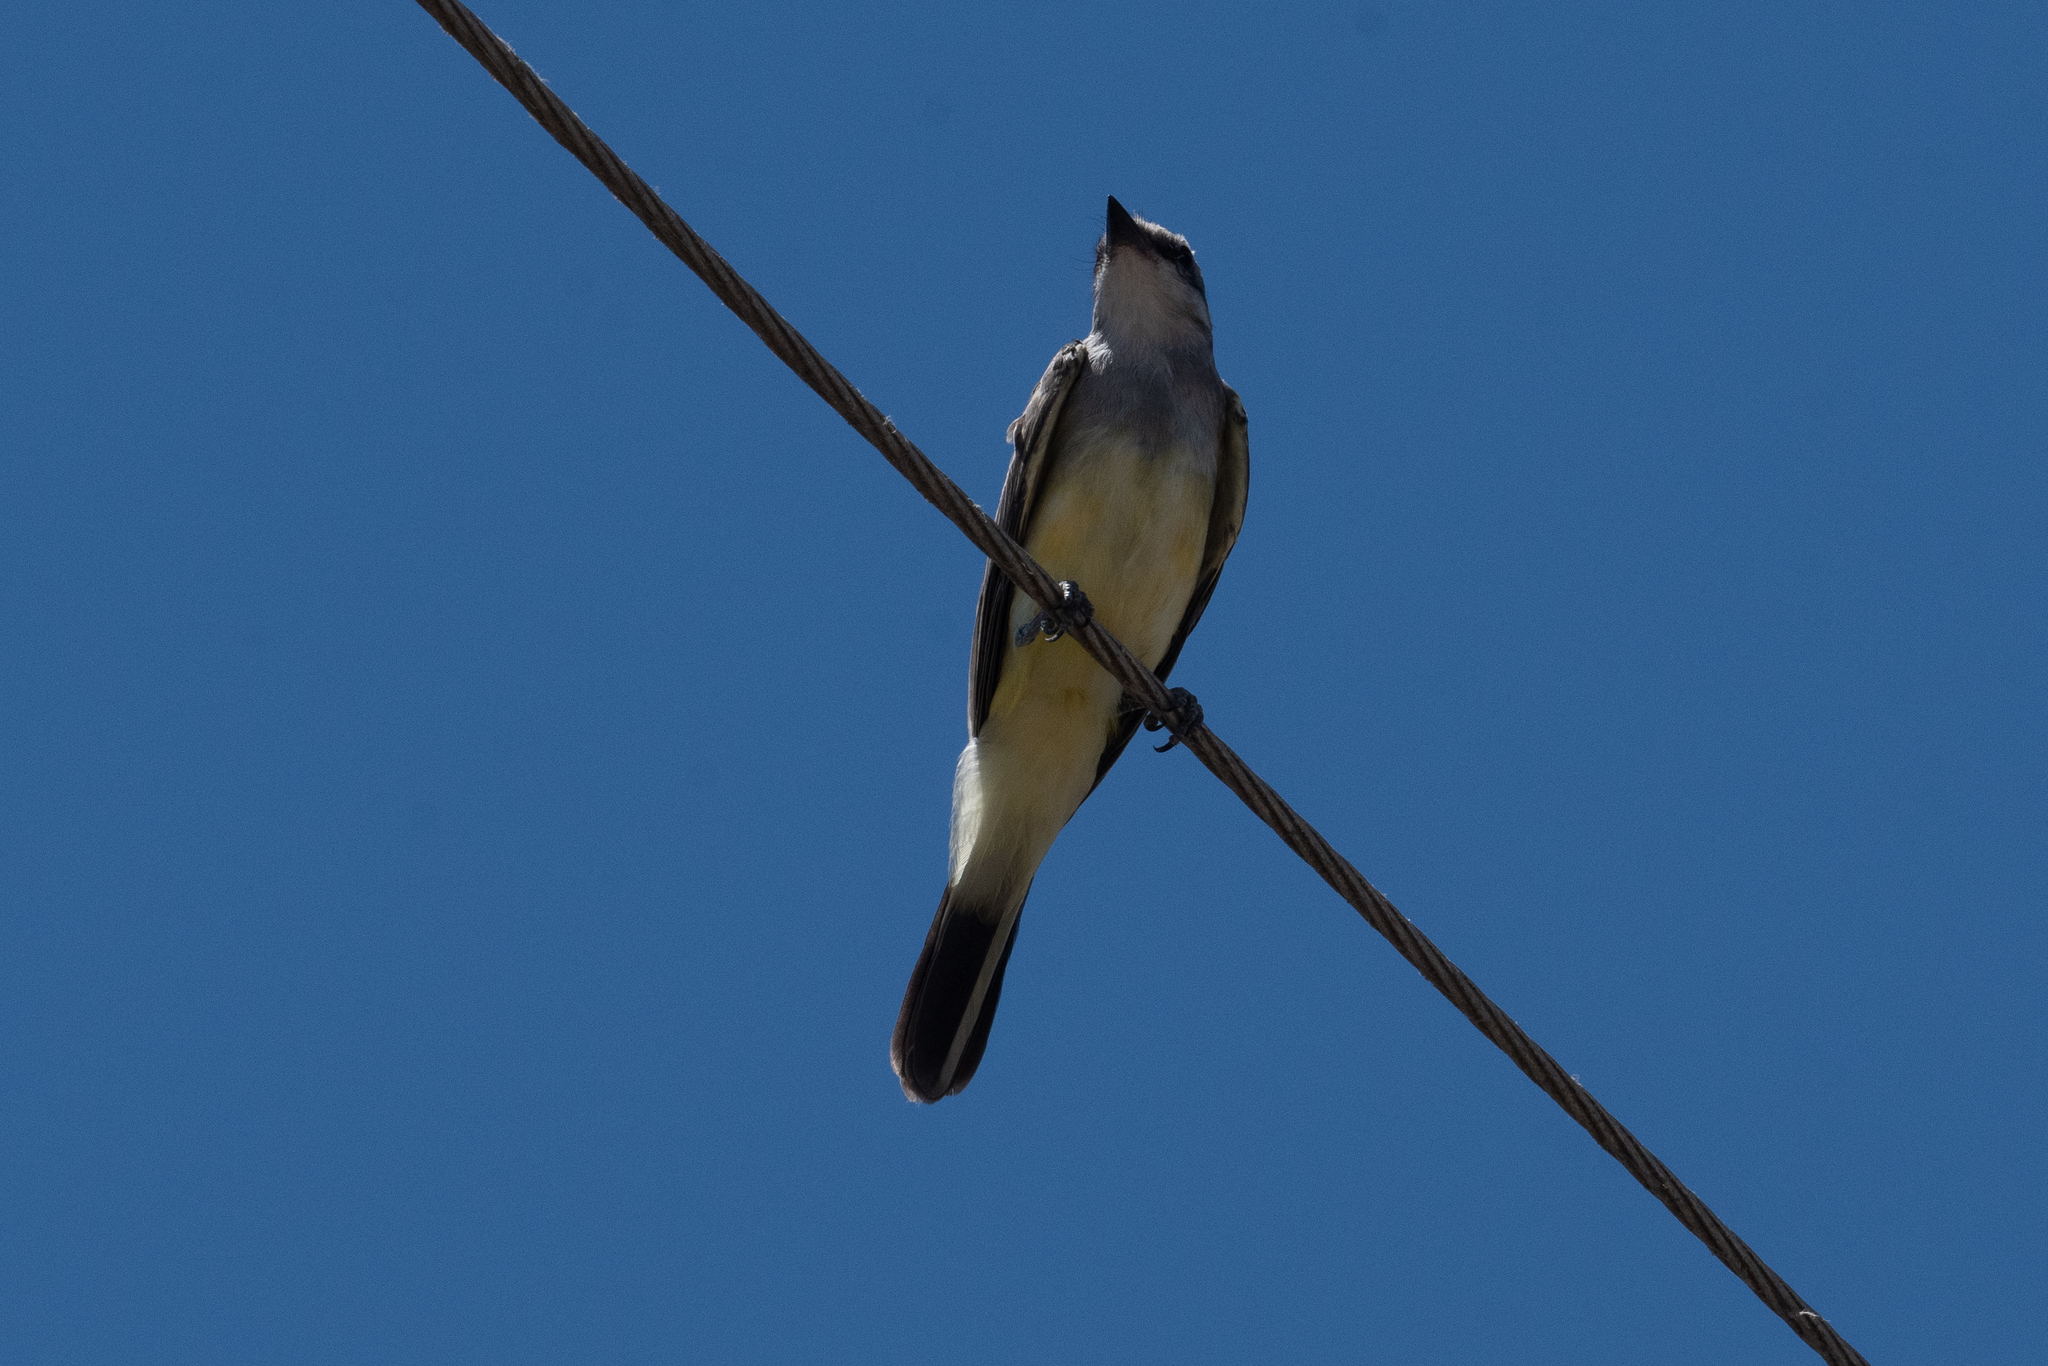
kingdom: Animalia
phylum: Chordata
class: Aves
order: Passeriformes
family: Tyrannidae
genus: Tyrannus
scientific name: Tyrannus verticalis
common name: Western kingbird
